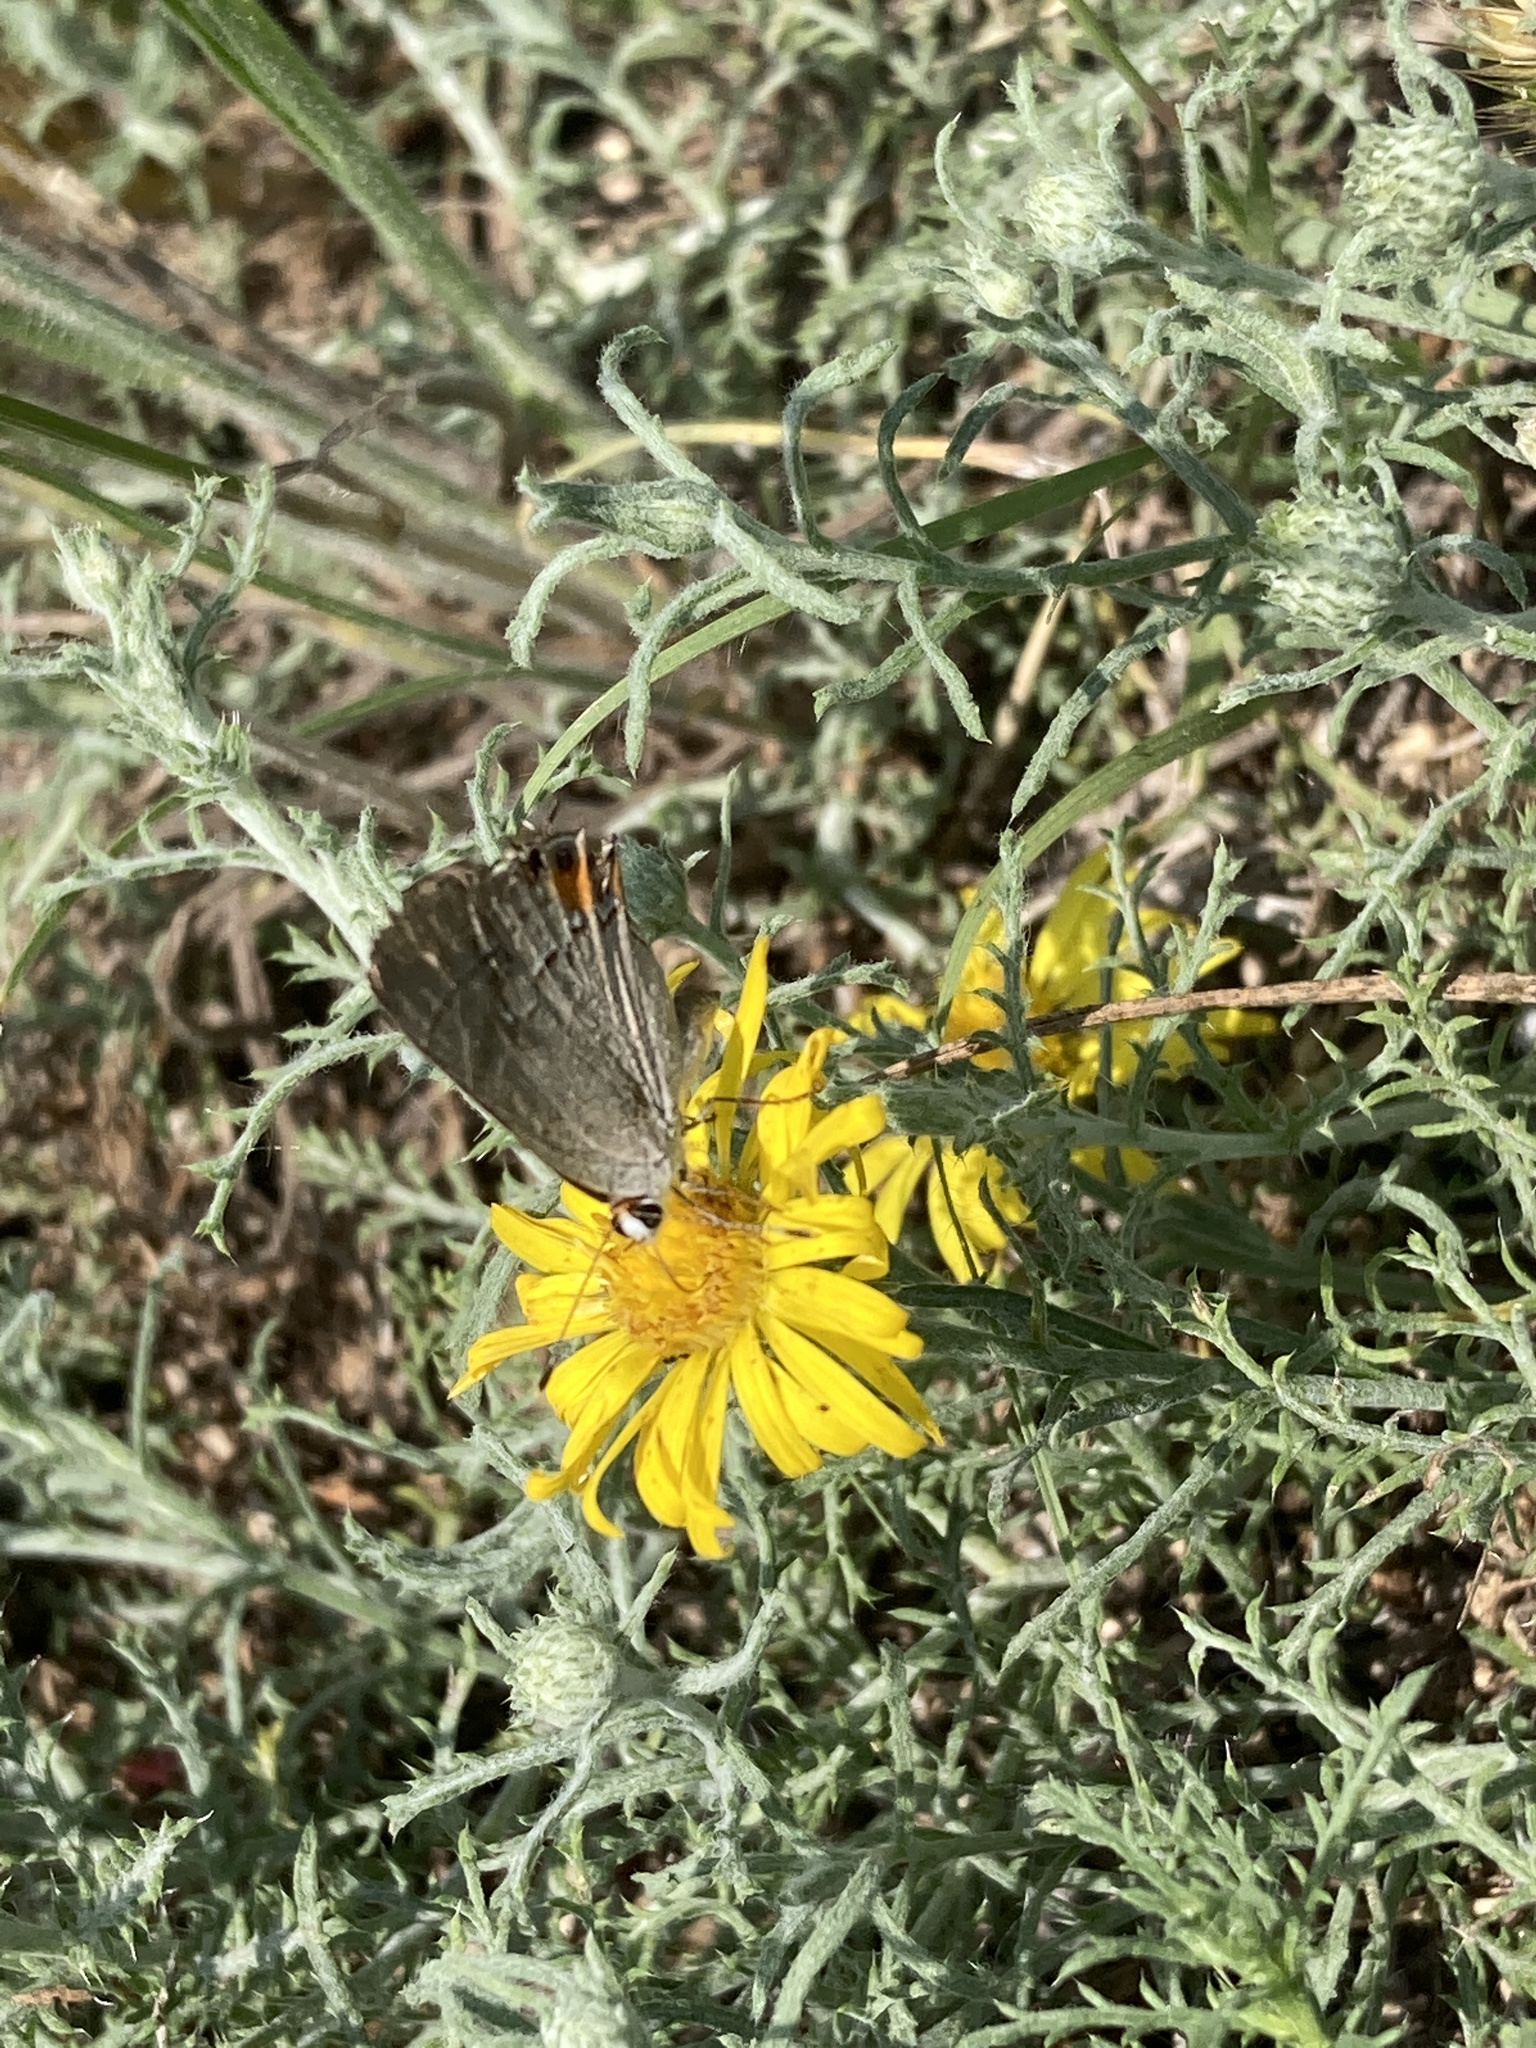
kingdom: Animalia
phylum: Arthropoda
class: Insecta
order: Lepidoptera
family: Lycaenidae
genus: Strymon
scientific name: Strymon melinus
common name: Gray hairstreak
